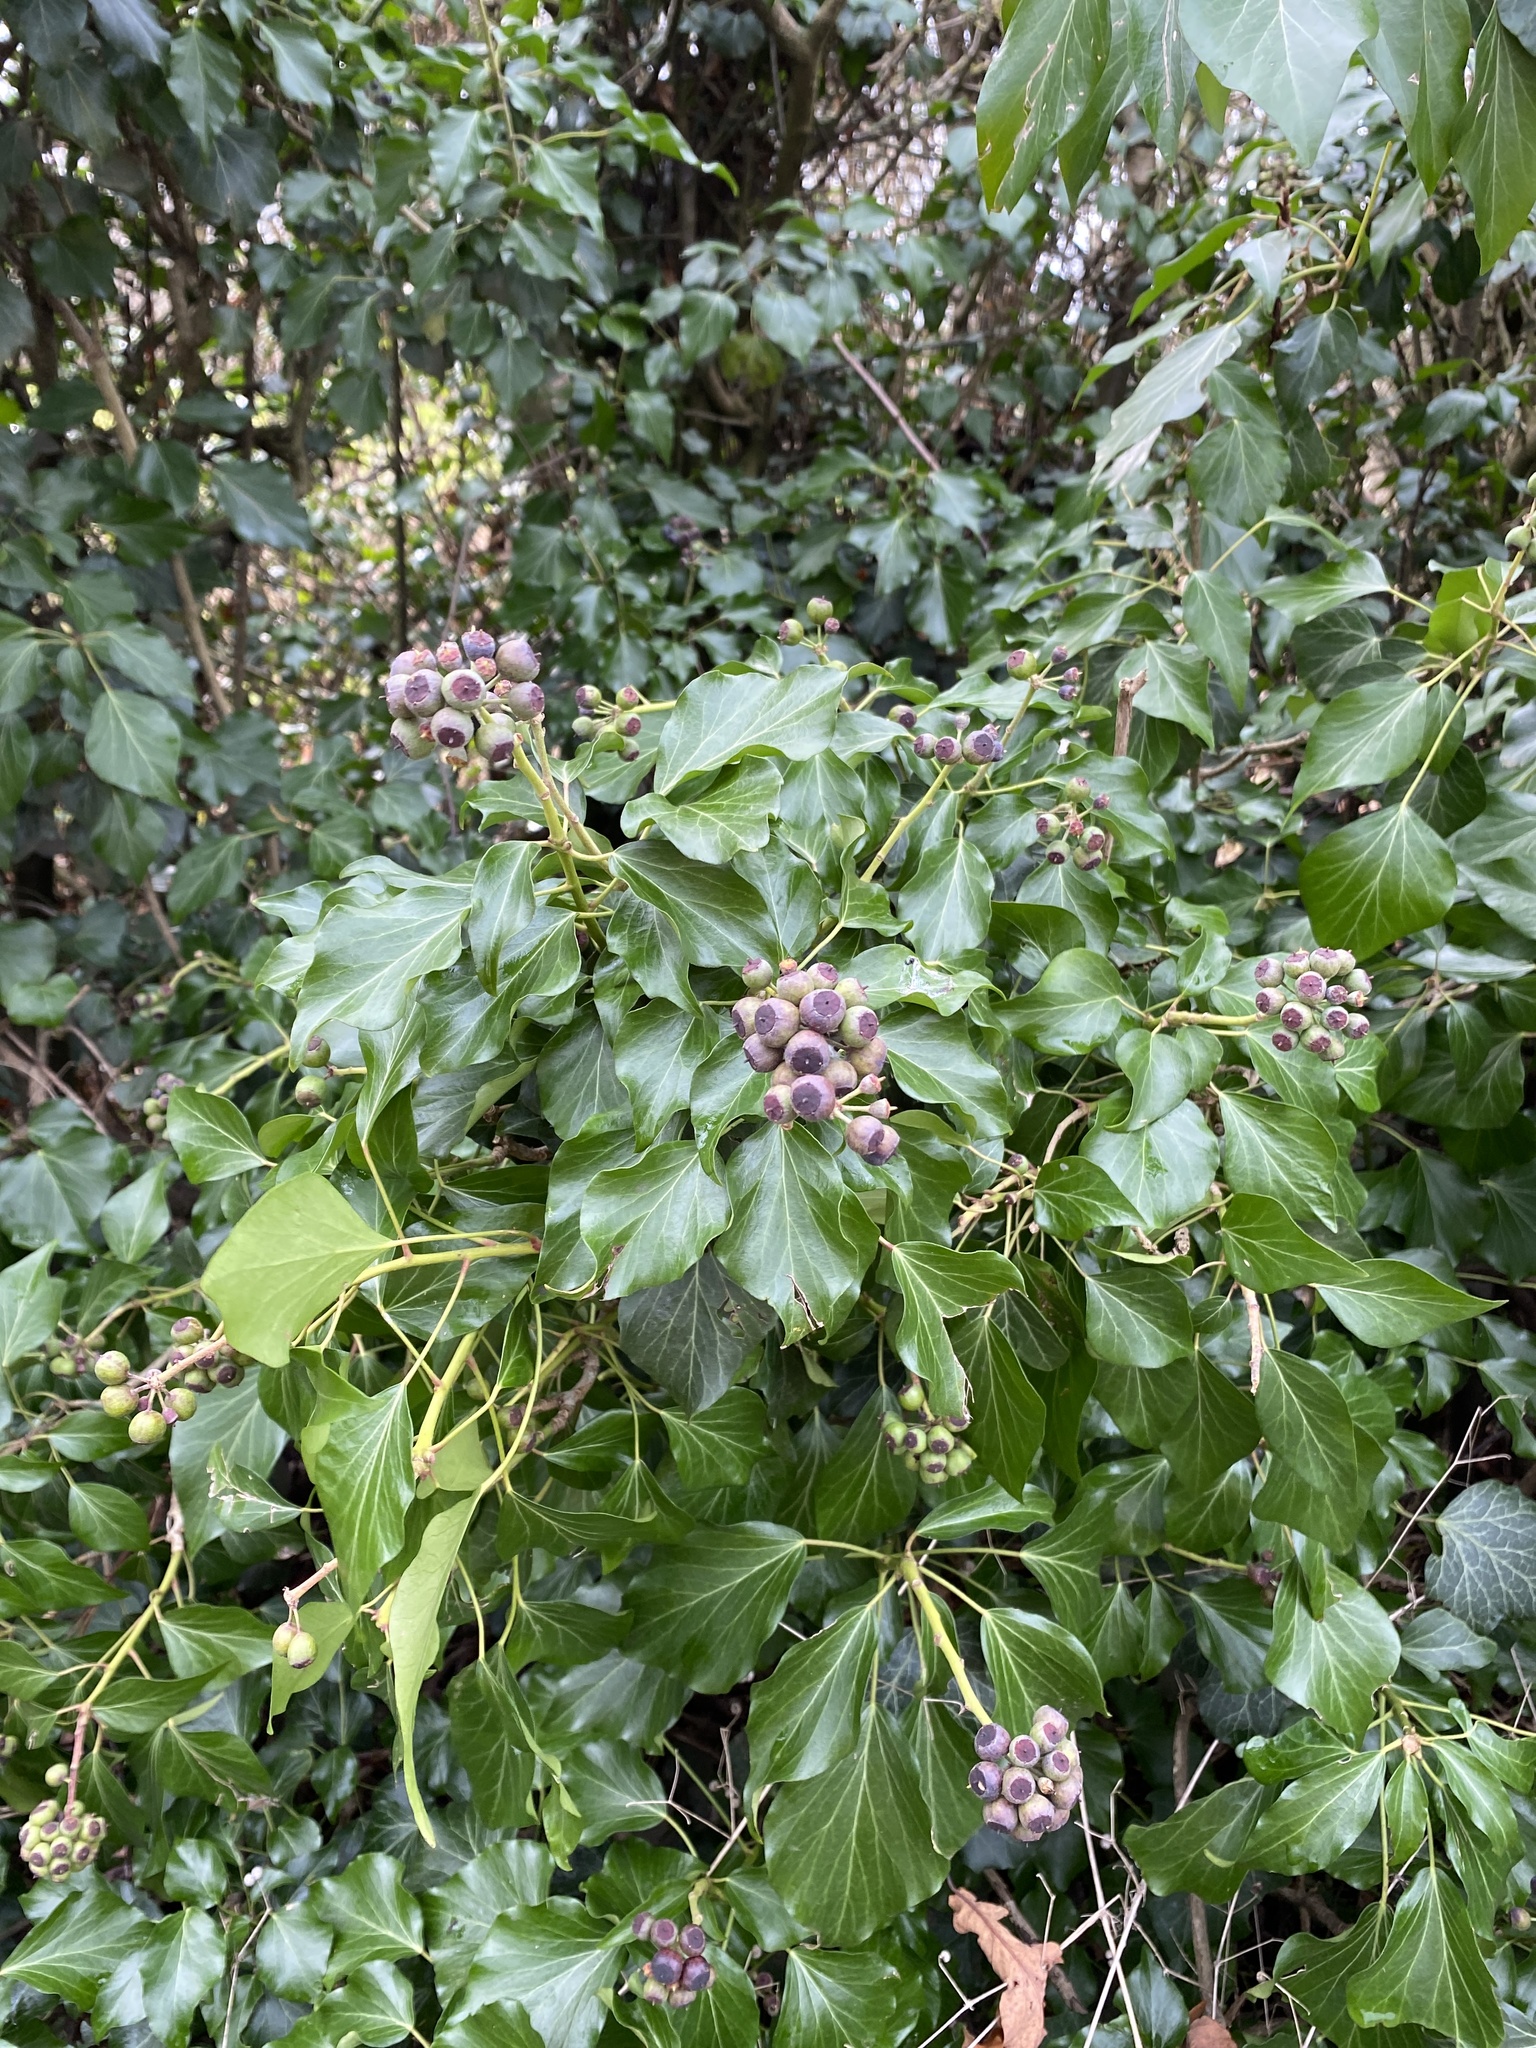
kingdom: Plantae
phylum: Tracheophyta
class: Magnoliopsida
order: Apiales
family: Araliaceae
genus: Hedera
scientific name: Hedera helix
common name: Ivy
